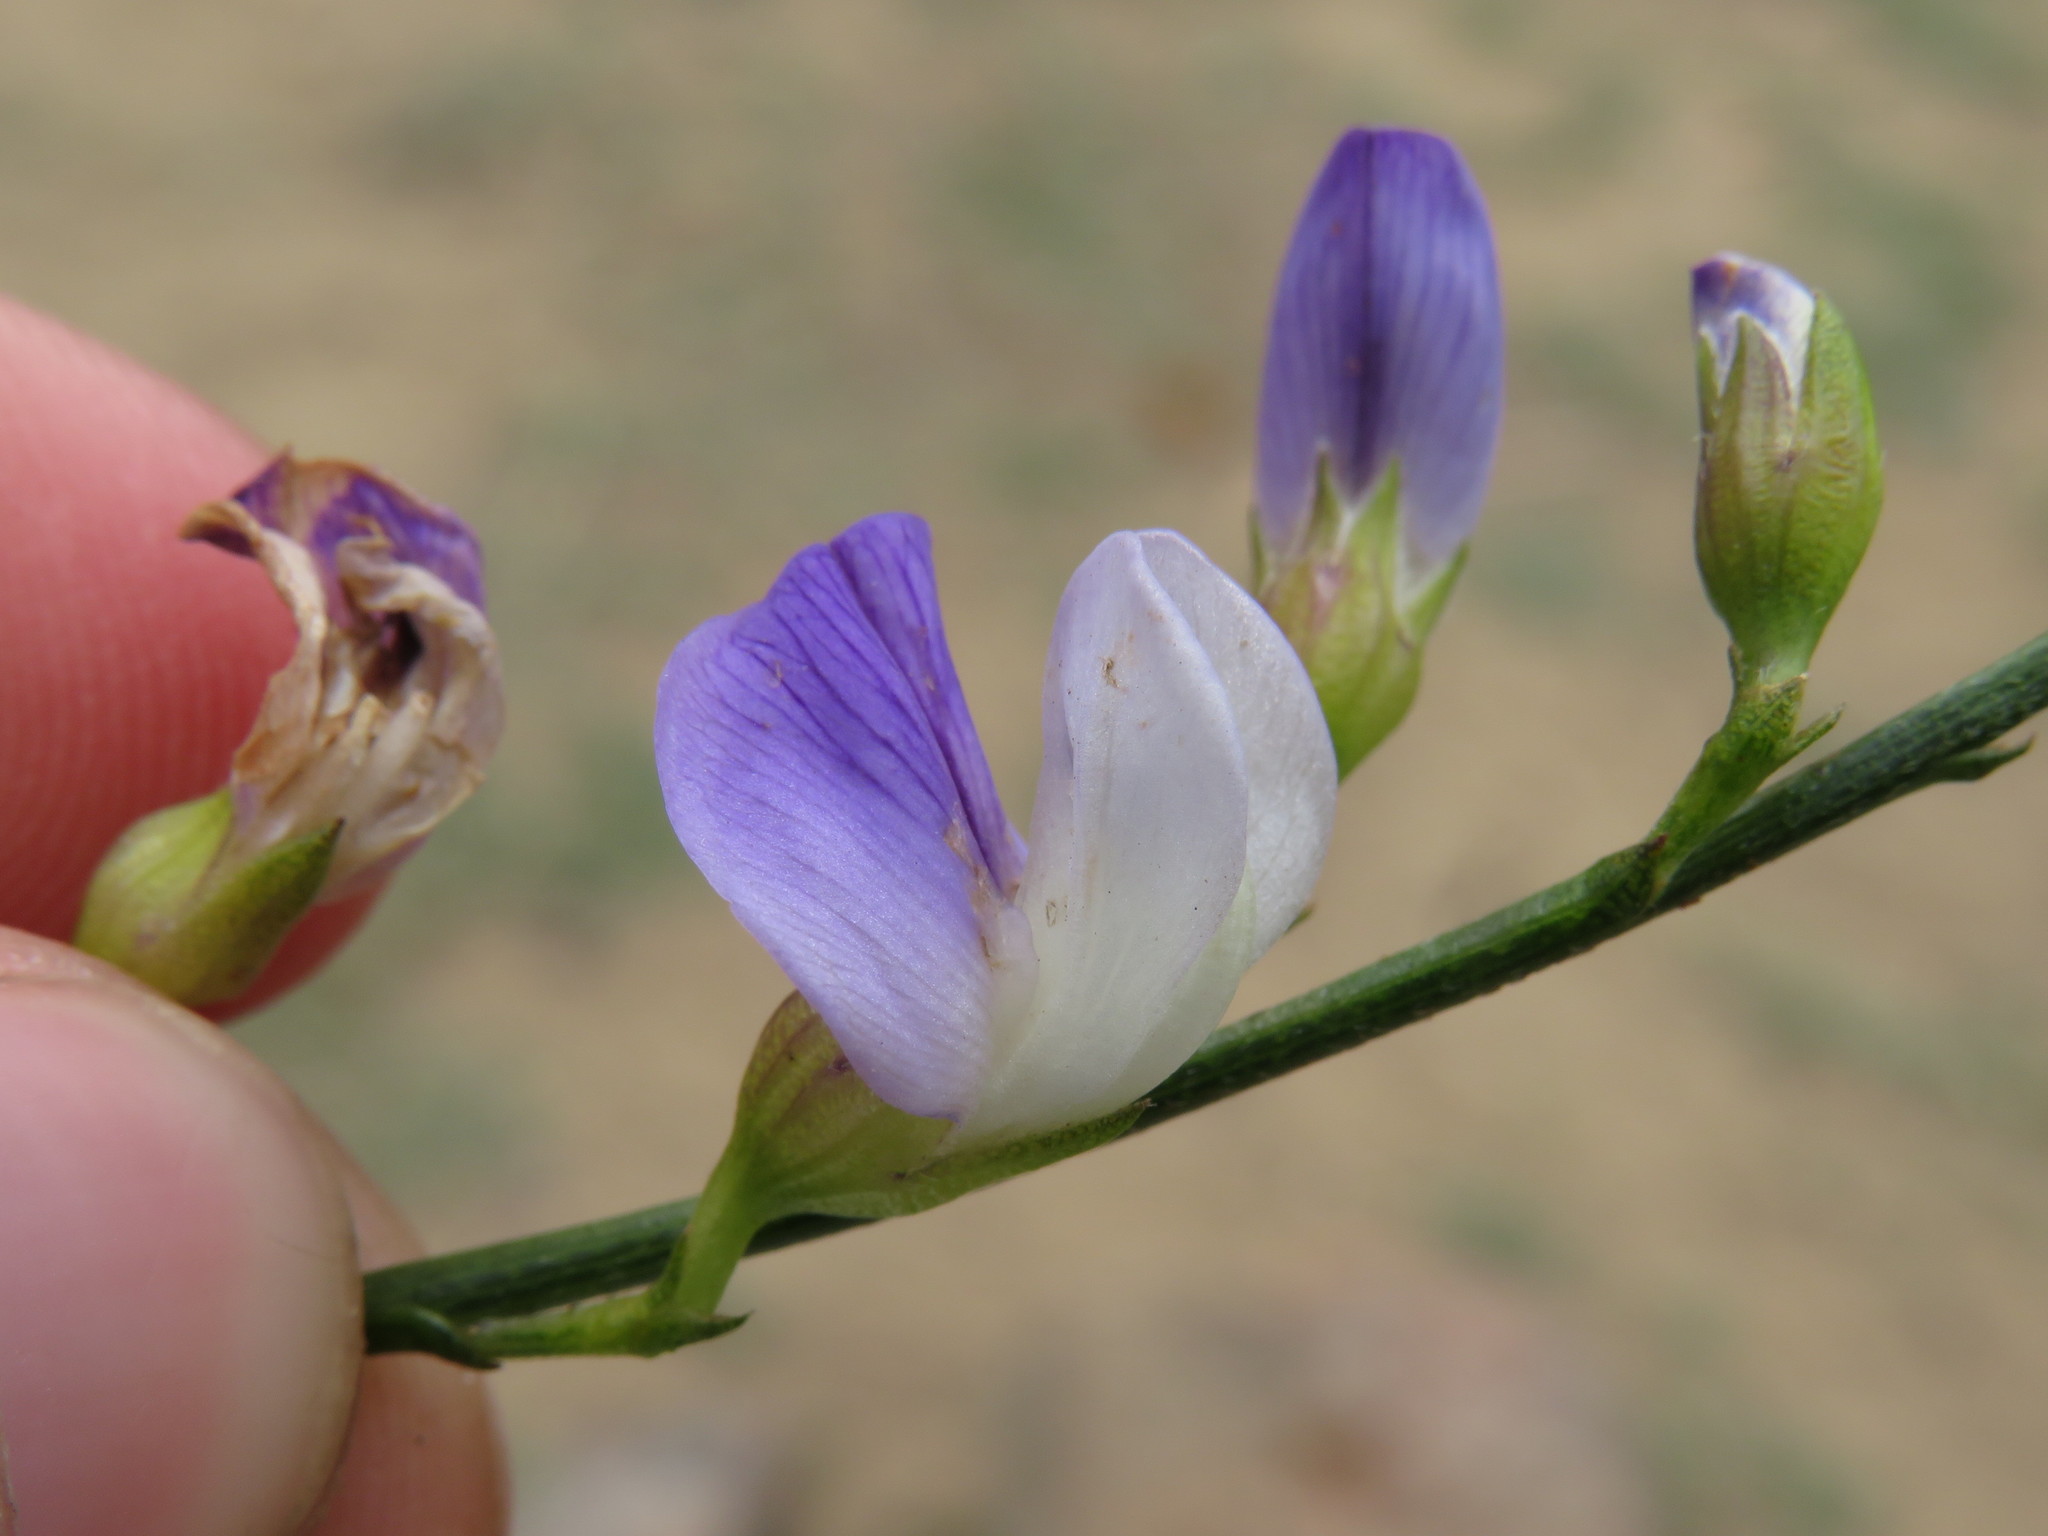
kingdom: Plantae
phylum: Tracheophyta
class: Magnoliopsida
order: Fabales
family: Fabaceae
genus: Psoralea
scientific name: Psoralea usitata
